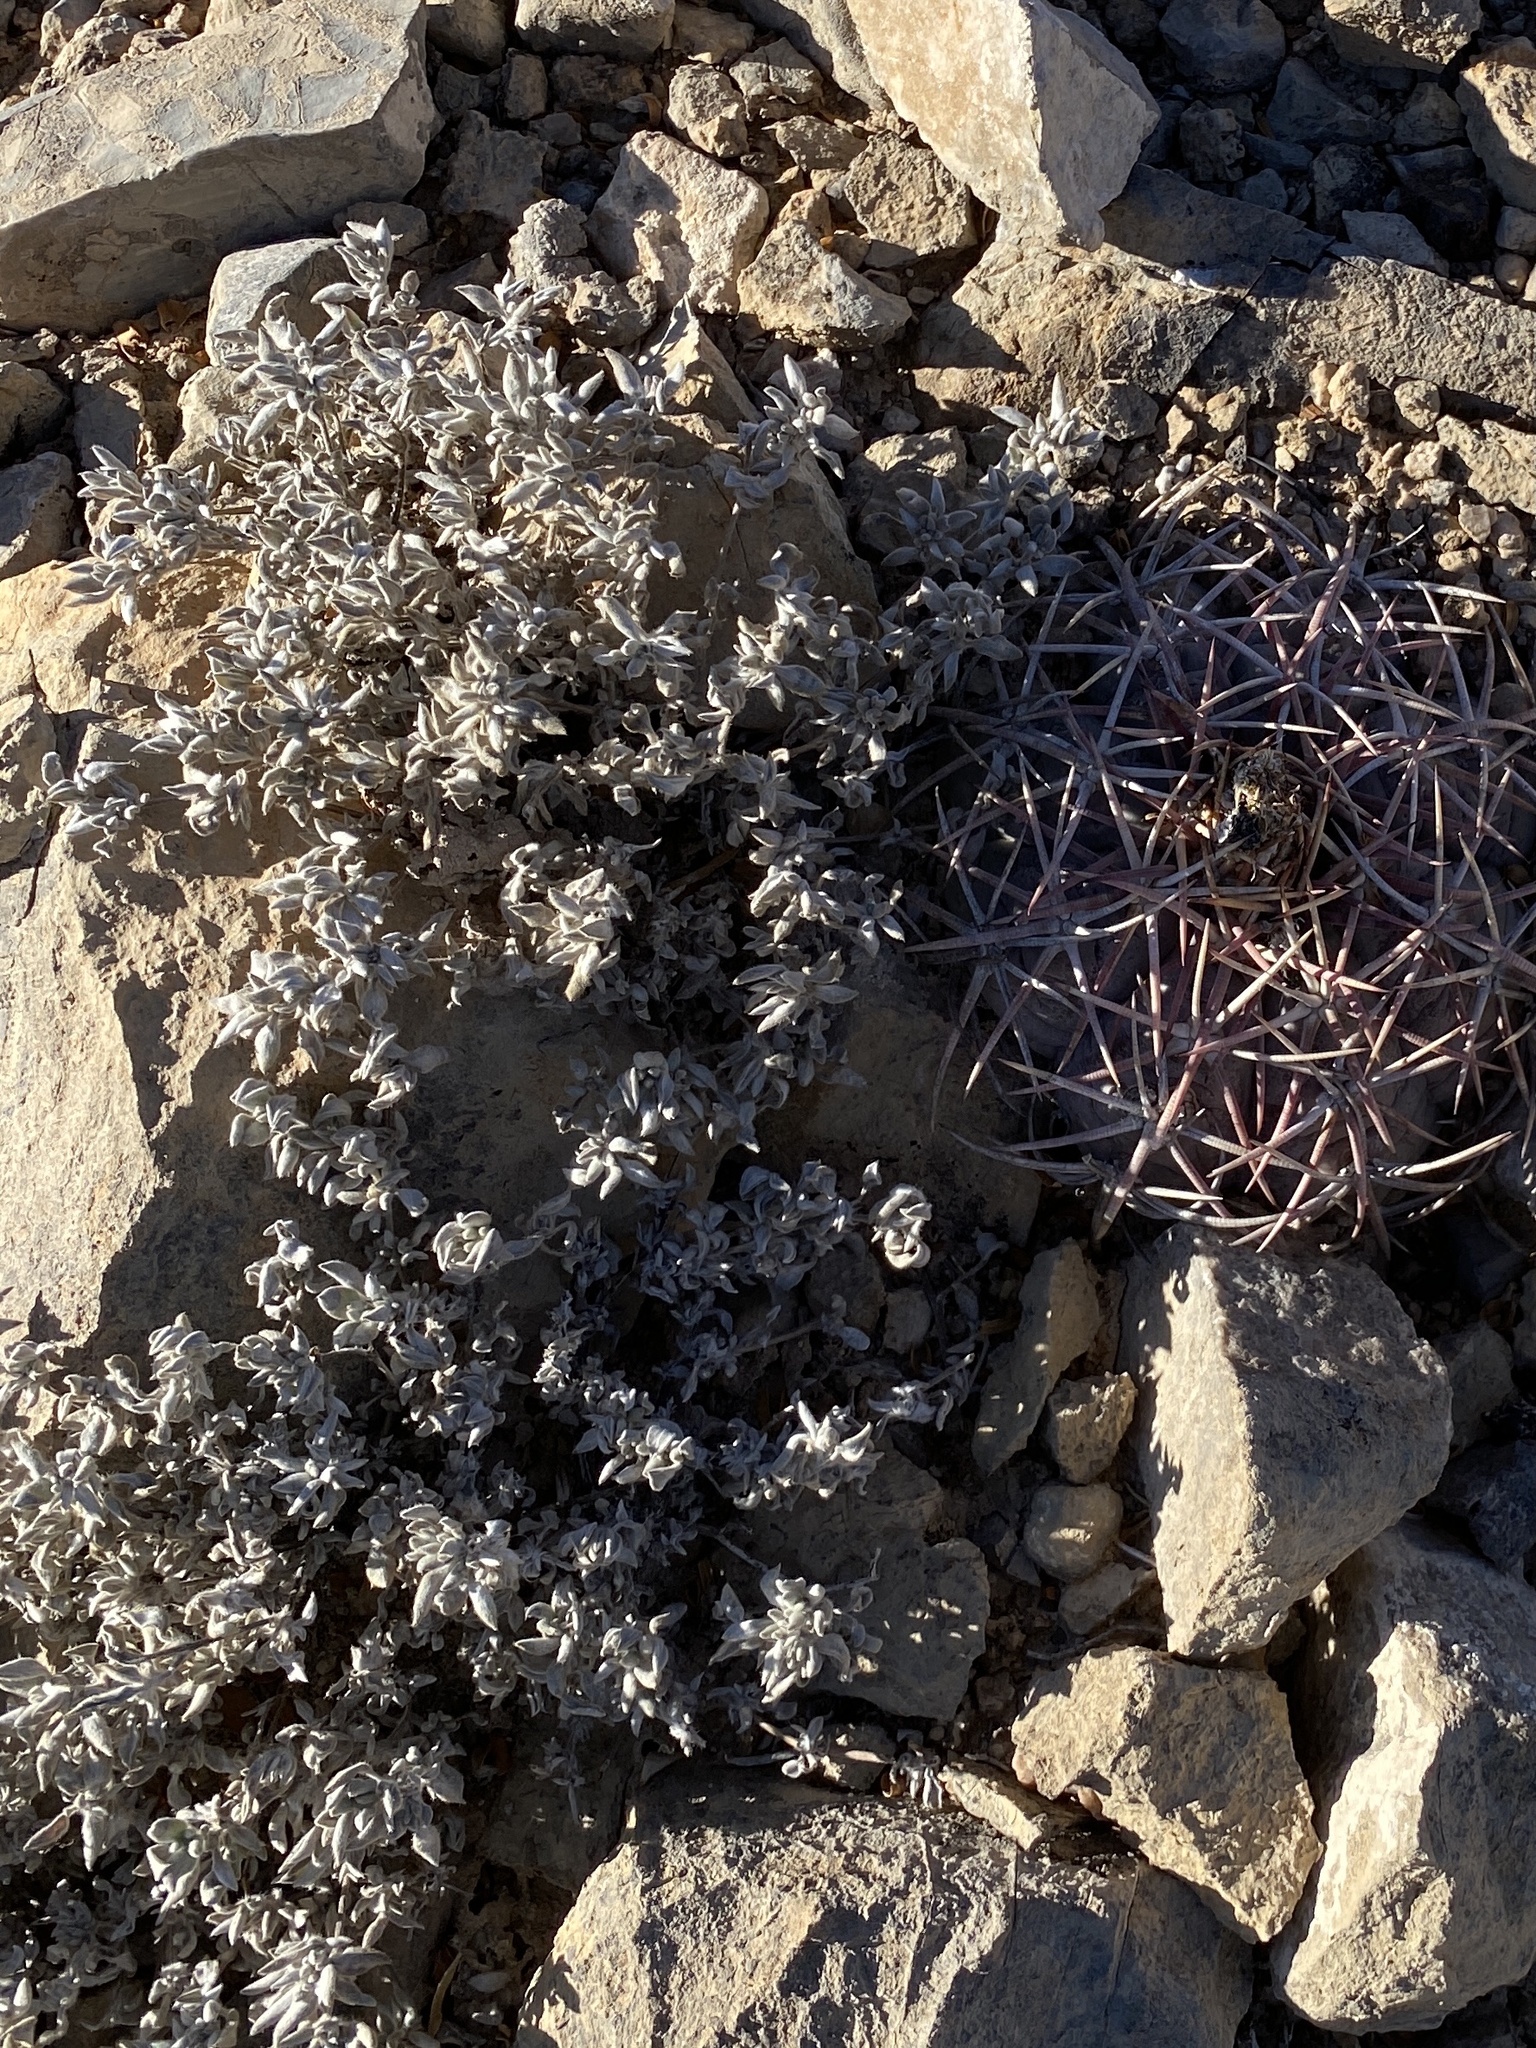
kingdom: Plantae
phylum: Tracheophyta
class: Magnoliopsida
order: Boraginales
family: Ehretiaceae
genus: Tiquilia
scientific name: Tiquilia canescens
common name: Hairy tiquilia
